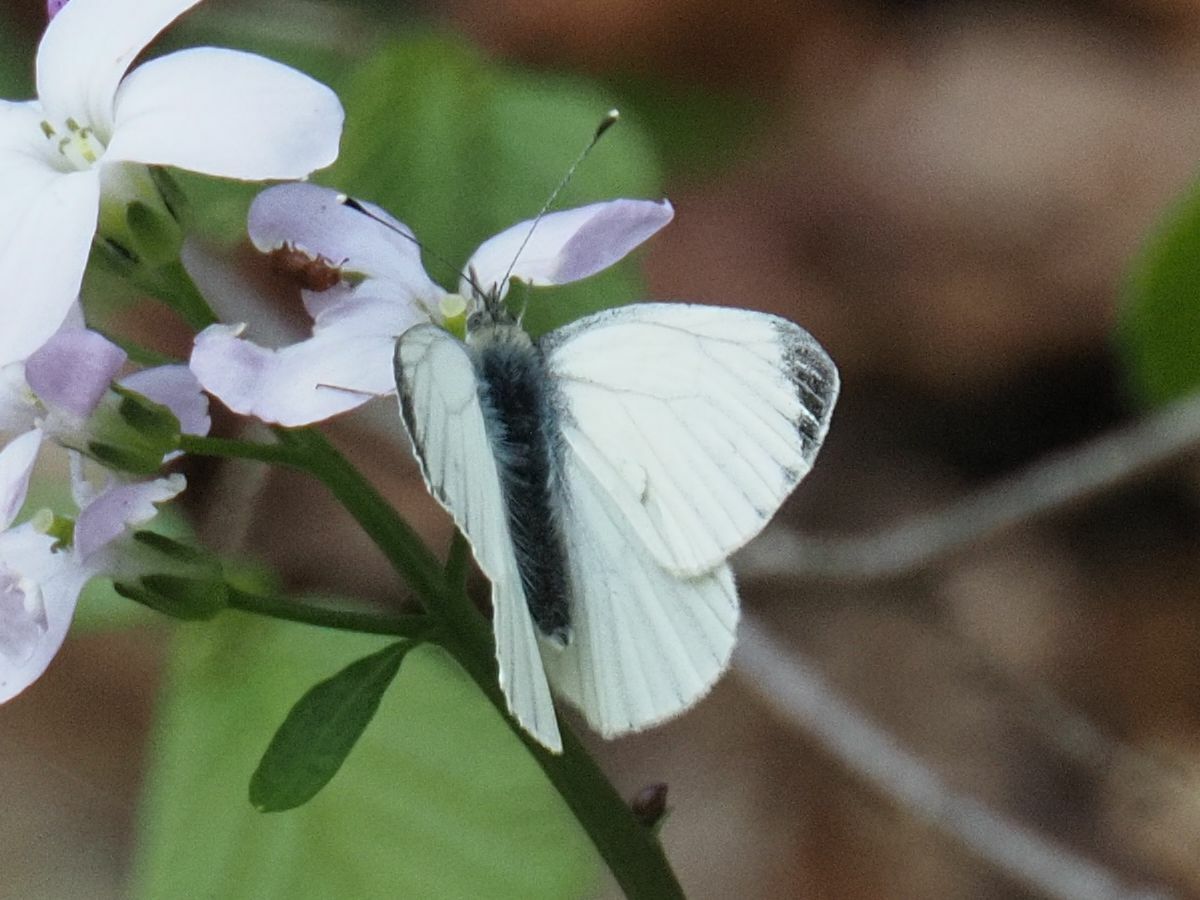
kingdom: Animalia
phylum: Arthropoda
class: Insecta
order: Lepidoptera
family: Pieridae
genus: Pieris
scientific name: Pieris napi
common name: Green-veined white
